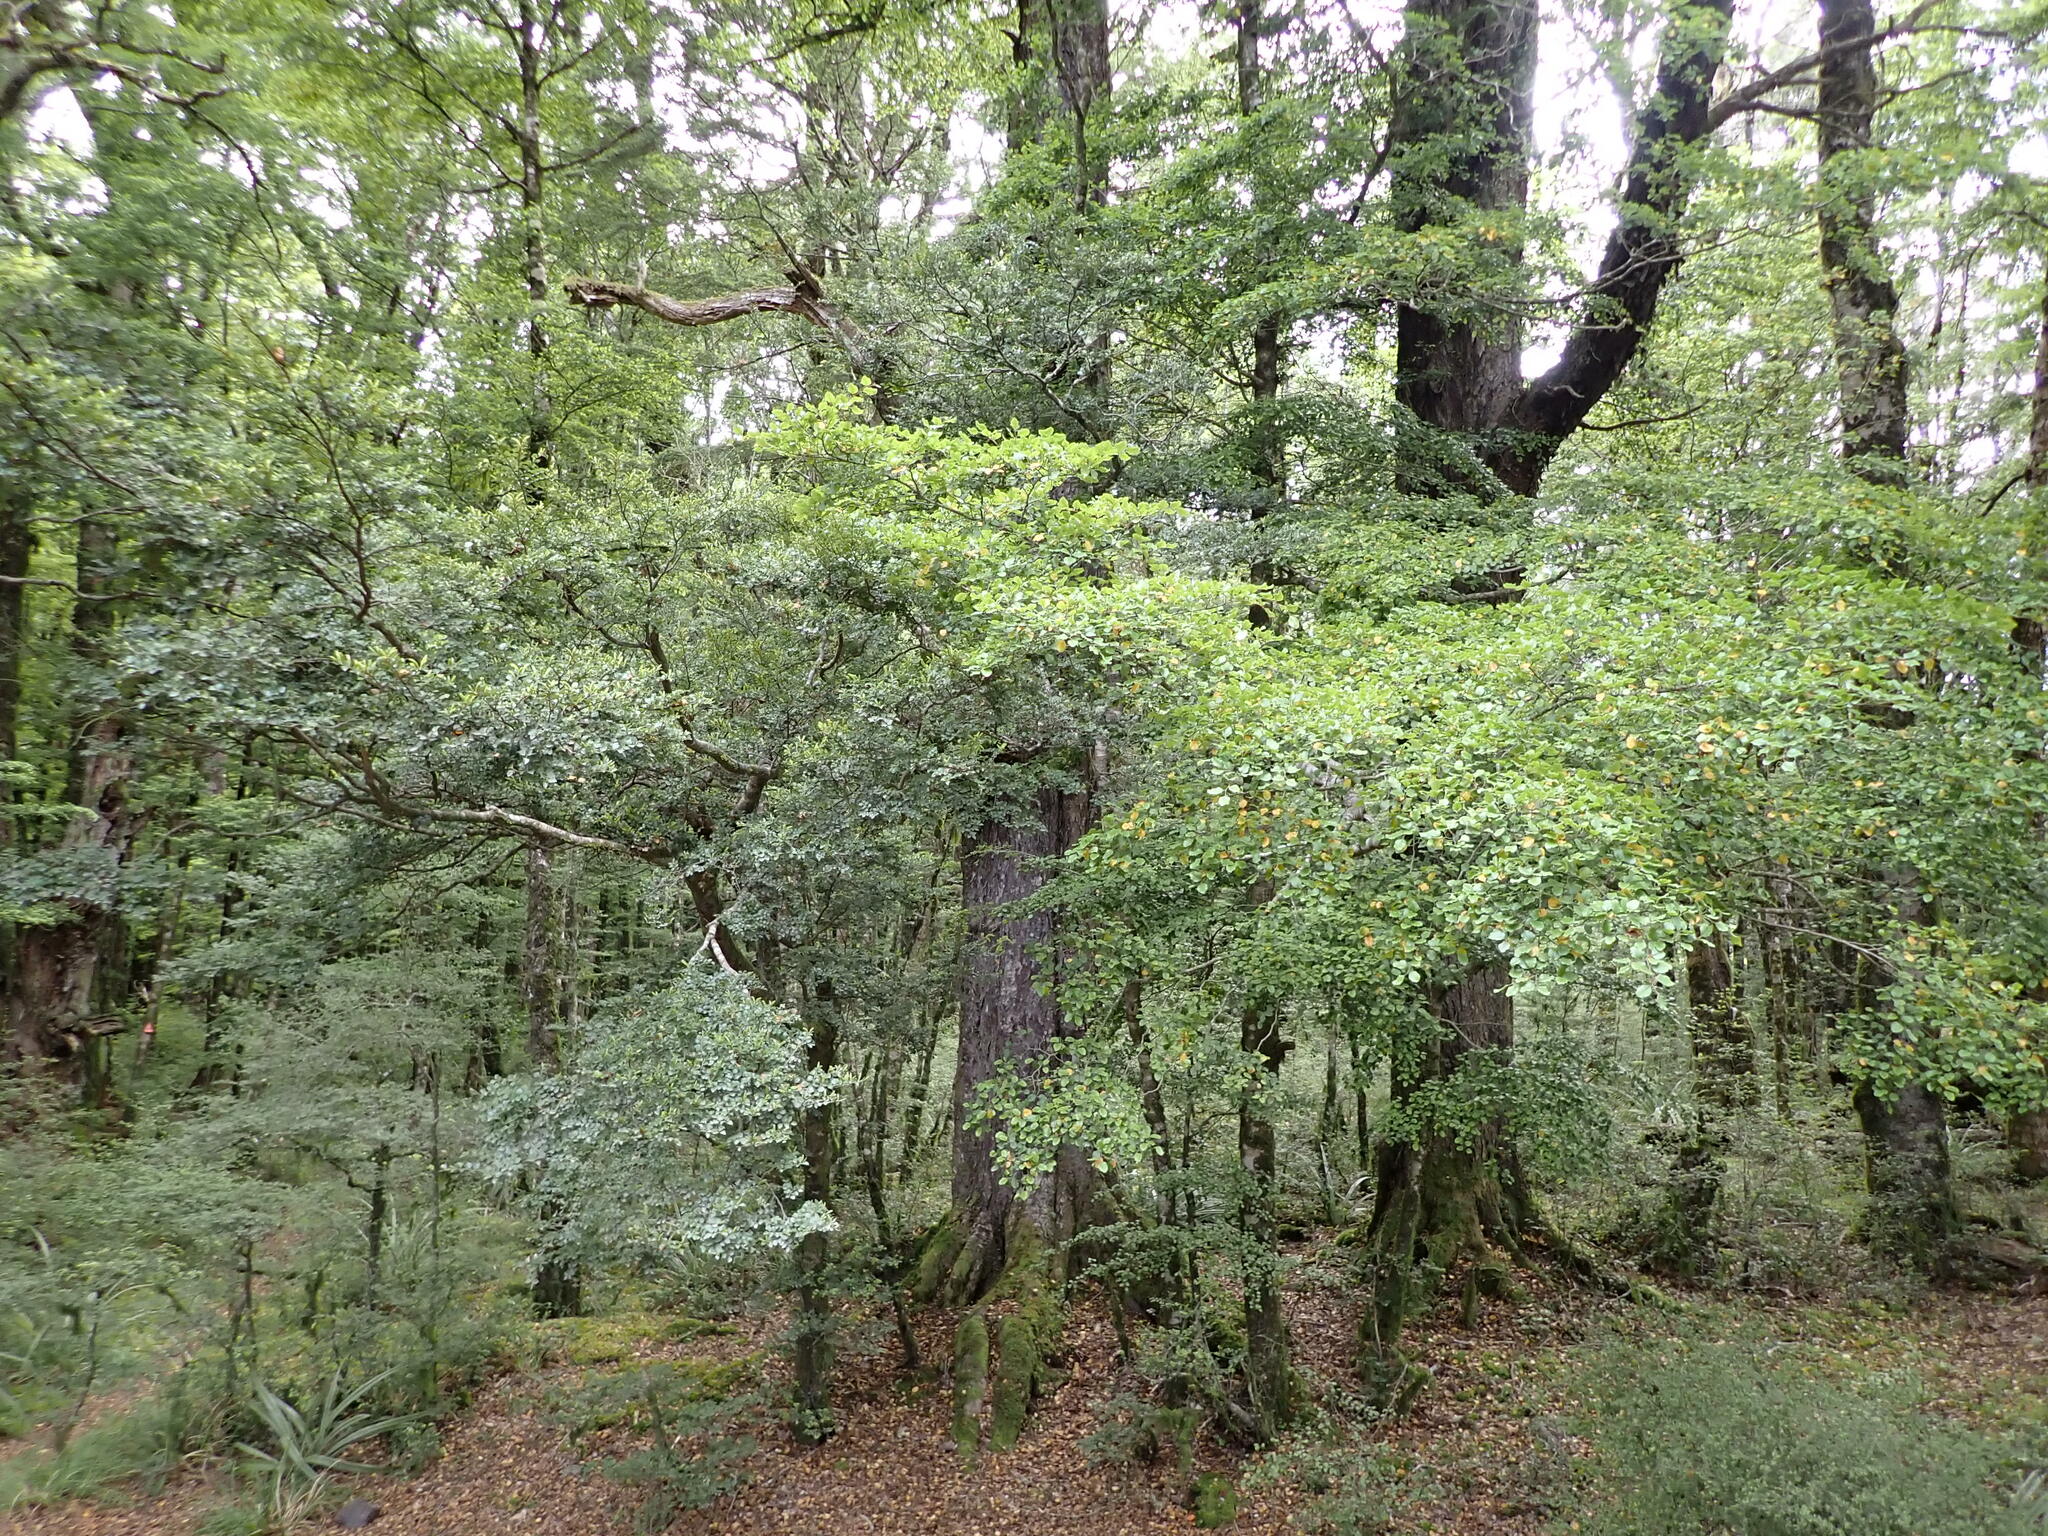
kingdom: Plantae
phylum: Tracheophyta
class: Magnoliopsida
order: Fagales
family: Nothofagaceae
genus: Nothofagus
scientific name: Nothofagus menziesii
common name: Silver beech
